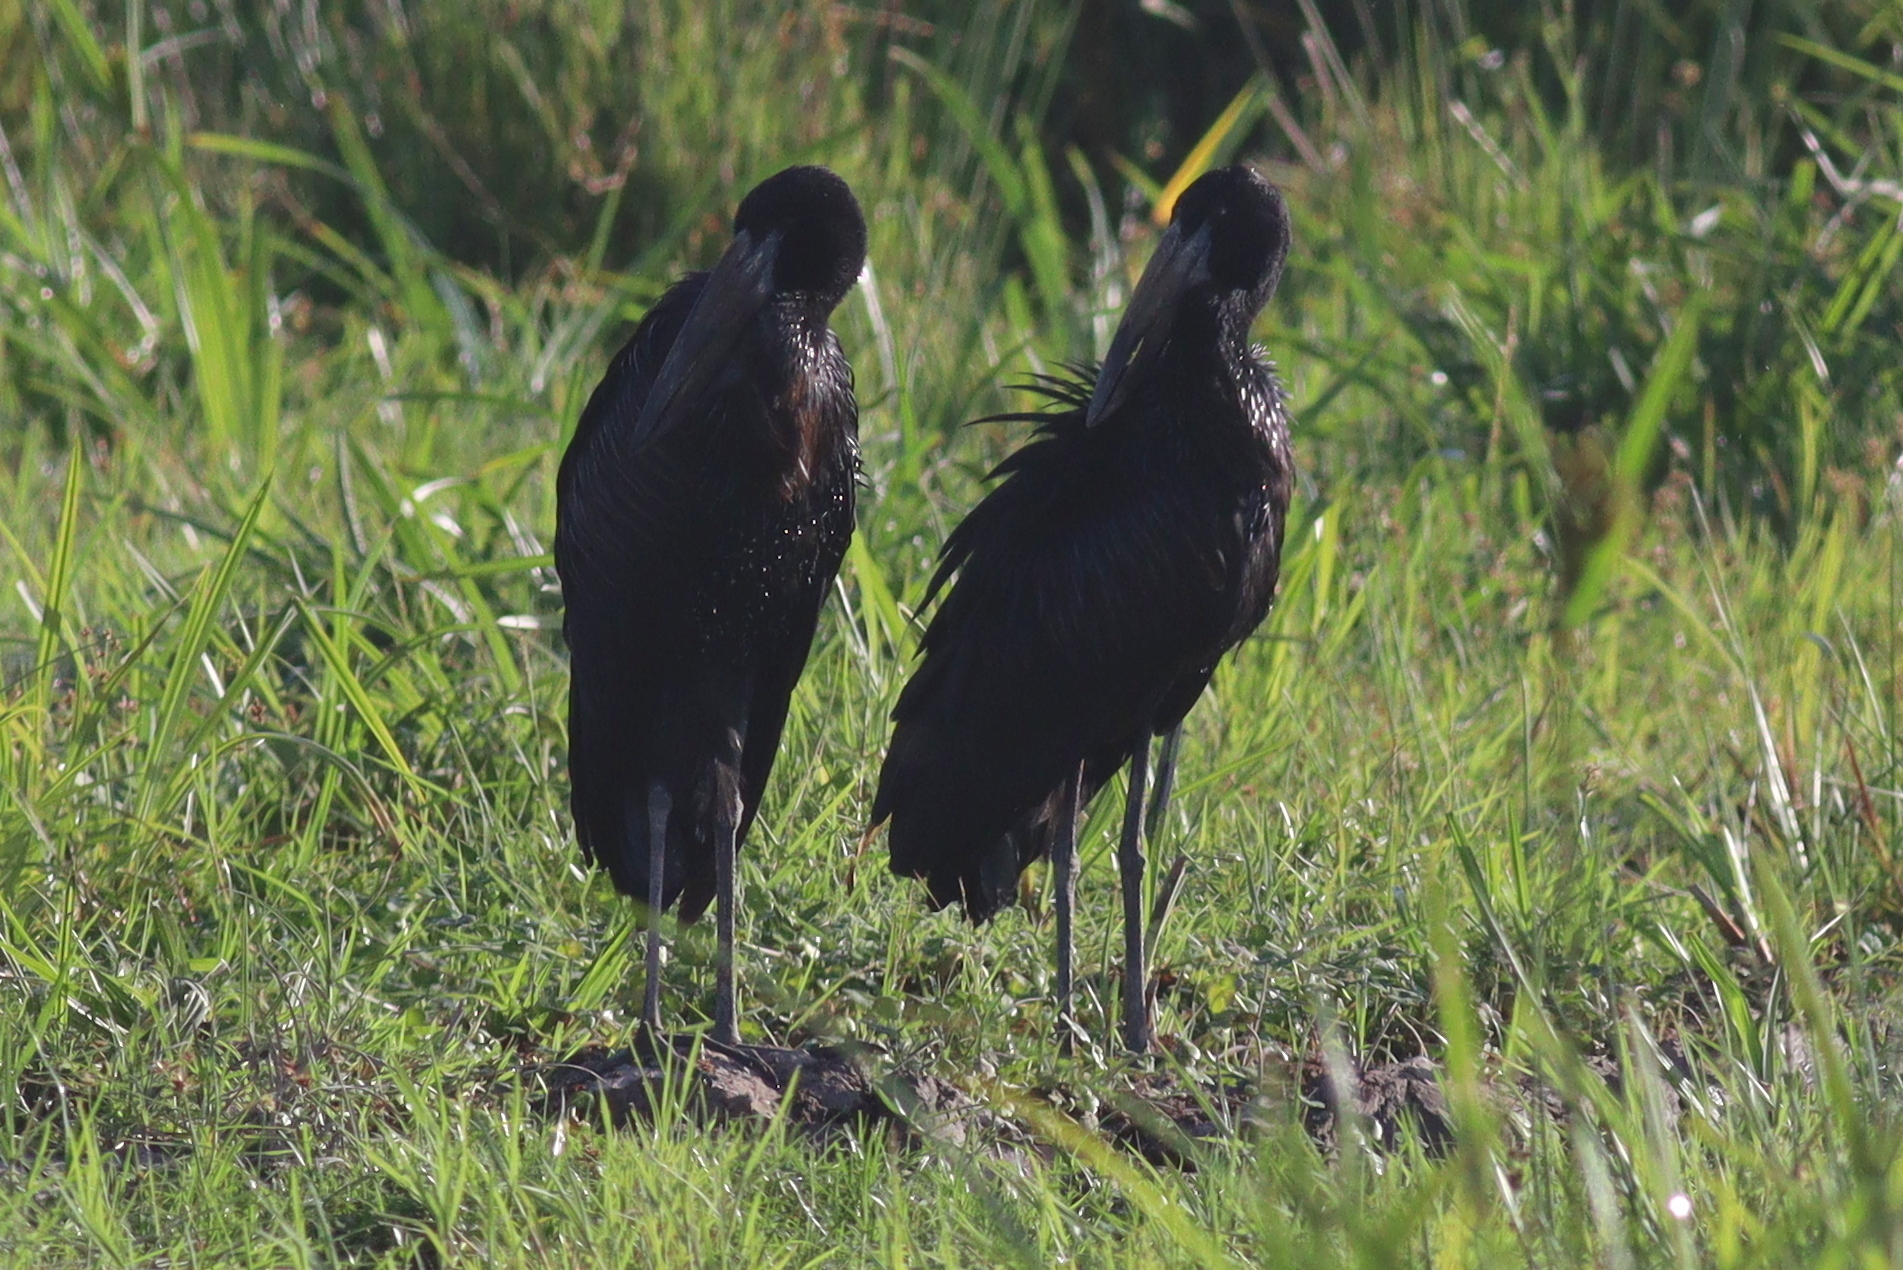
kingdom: Animalia
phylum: Chordata
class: Aves
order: Ciconiiformes
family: Ciconiidae
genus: Anastomus
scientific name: Anastomus lamelligerus
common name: African openbill
